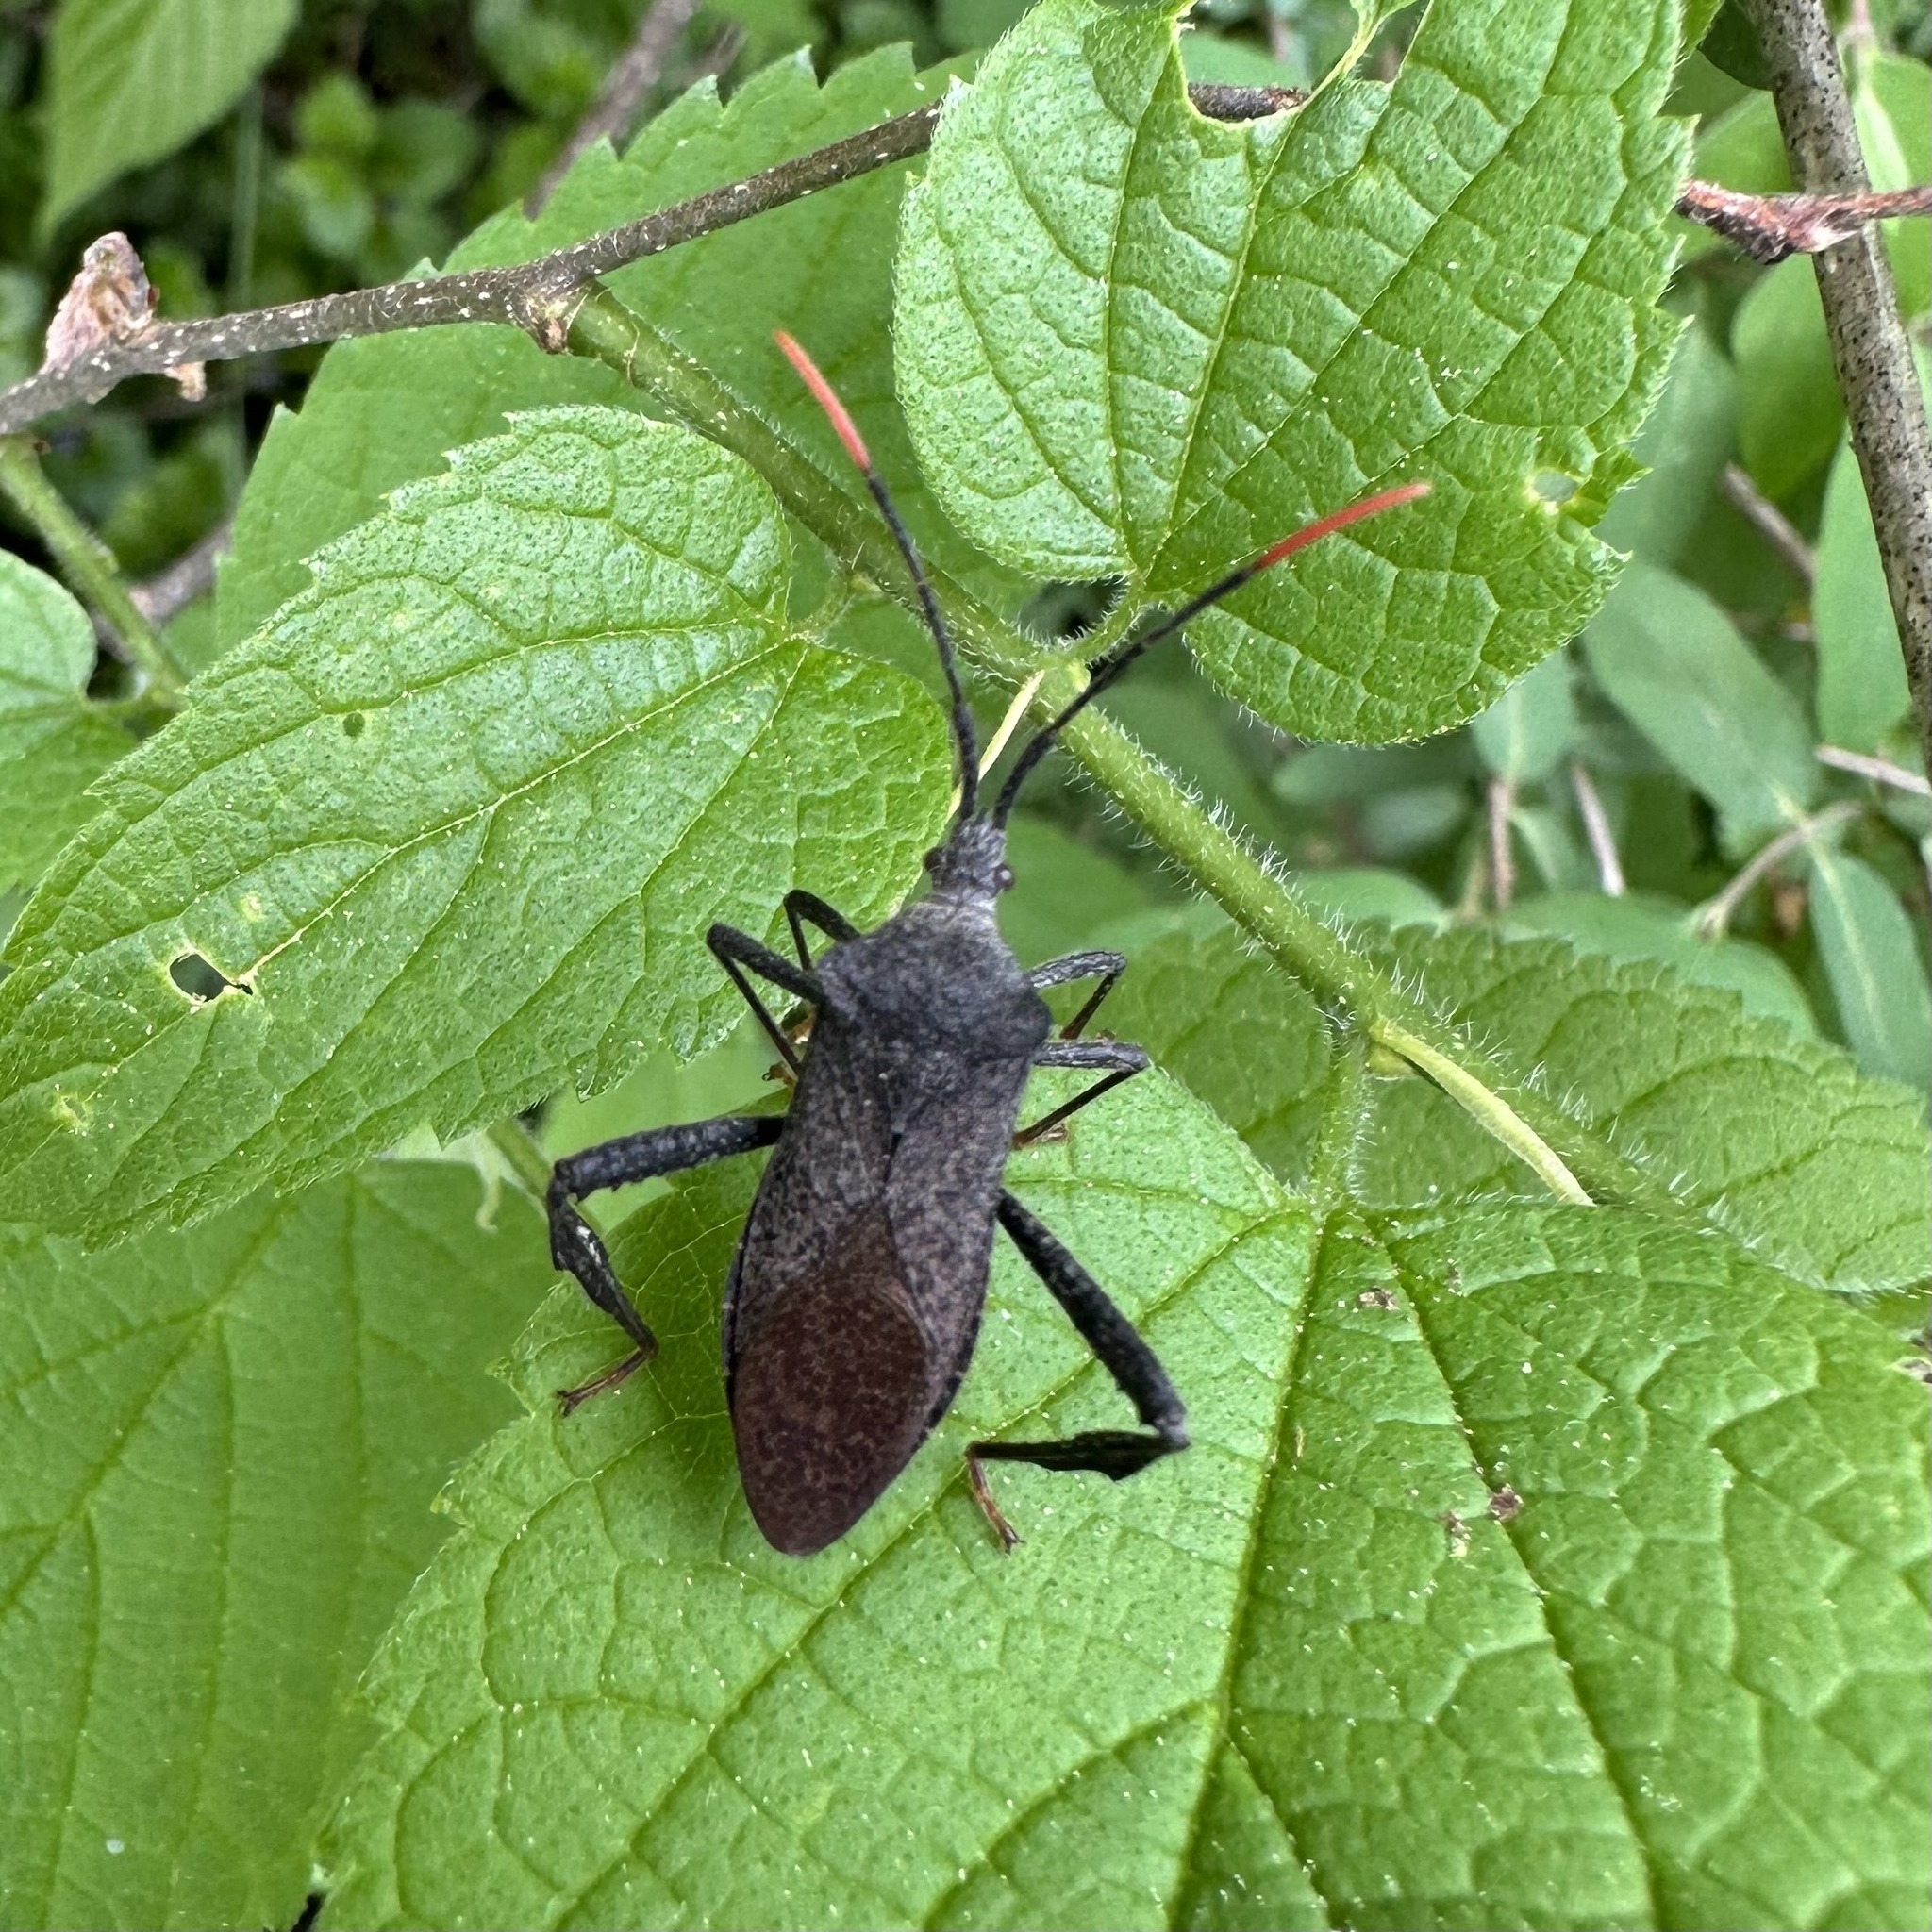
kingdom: Animalia
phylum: Arthropoda
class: Insecta
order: Hemiptera
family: Coreidae
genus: Acanthocephala
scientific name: Acanthocephala terminalis
